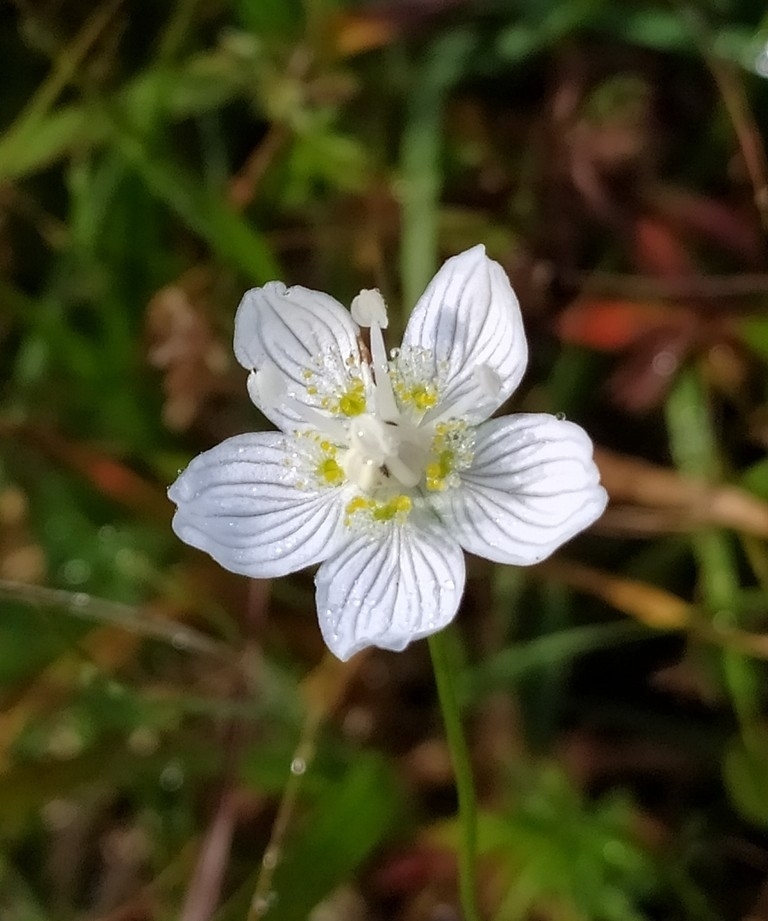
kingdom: Plantae
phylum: Tracheophyta
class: Magnoliopsida
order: Celastrales
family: Parnassiaceae
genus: Parnassia
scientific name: Parnassia palustris
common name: Grass-of-parnassus
